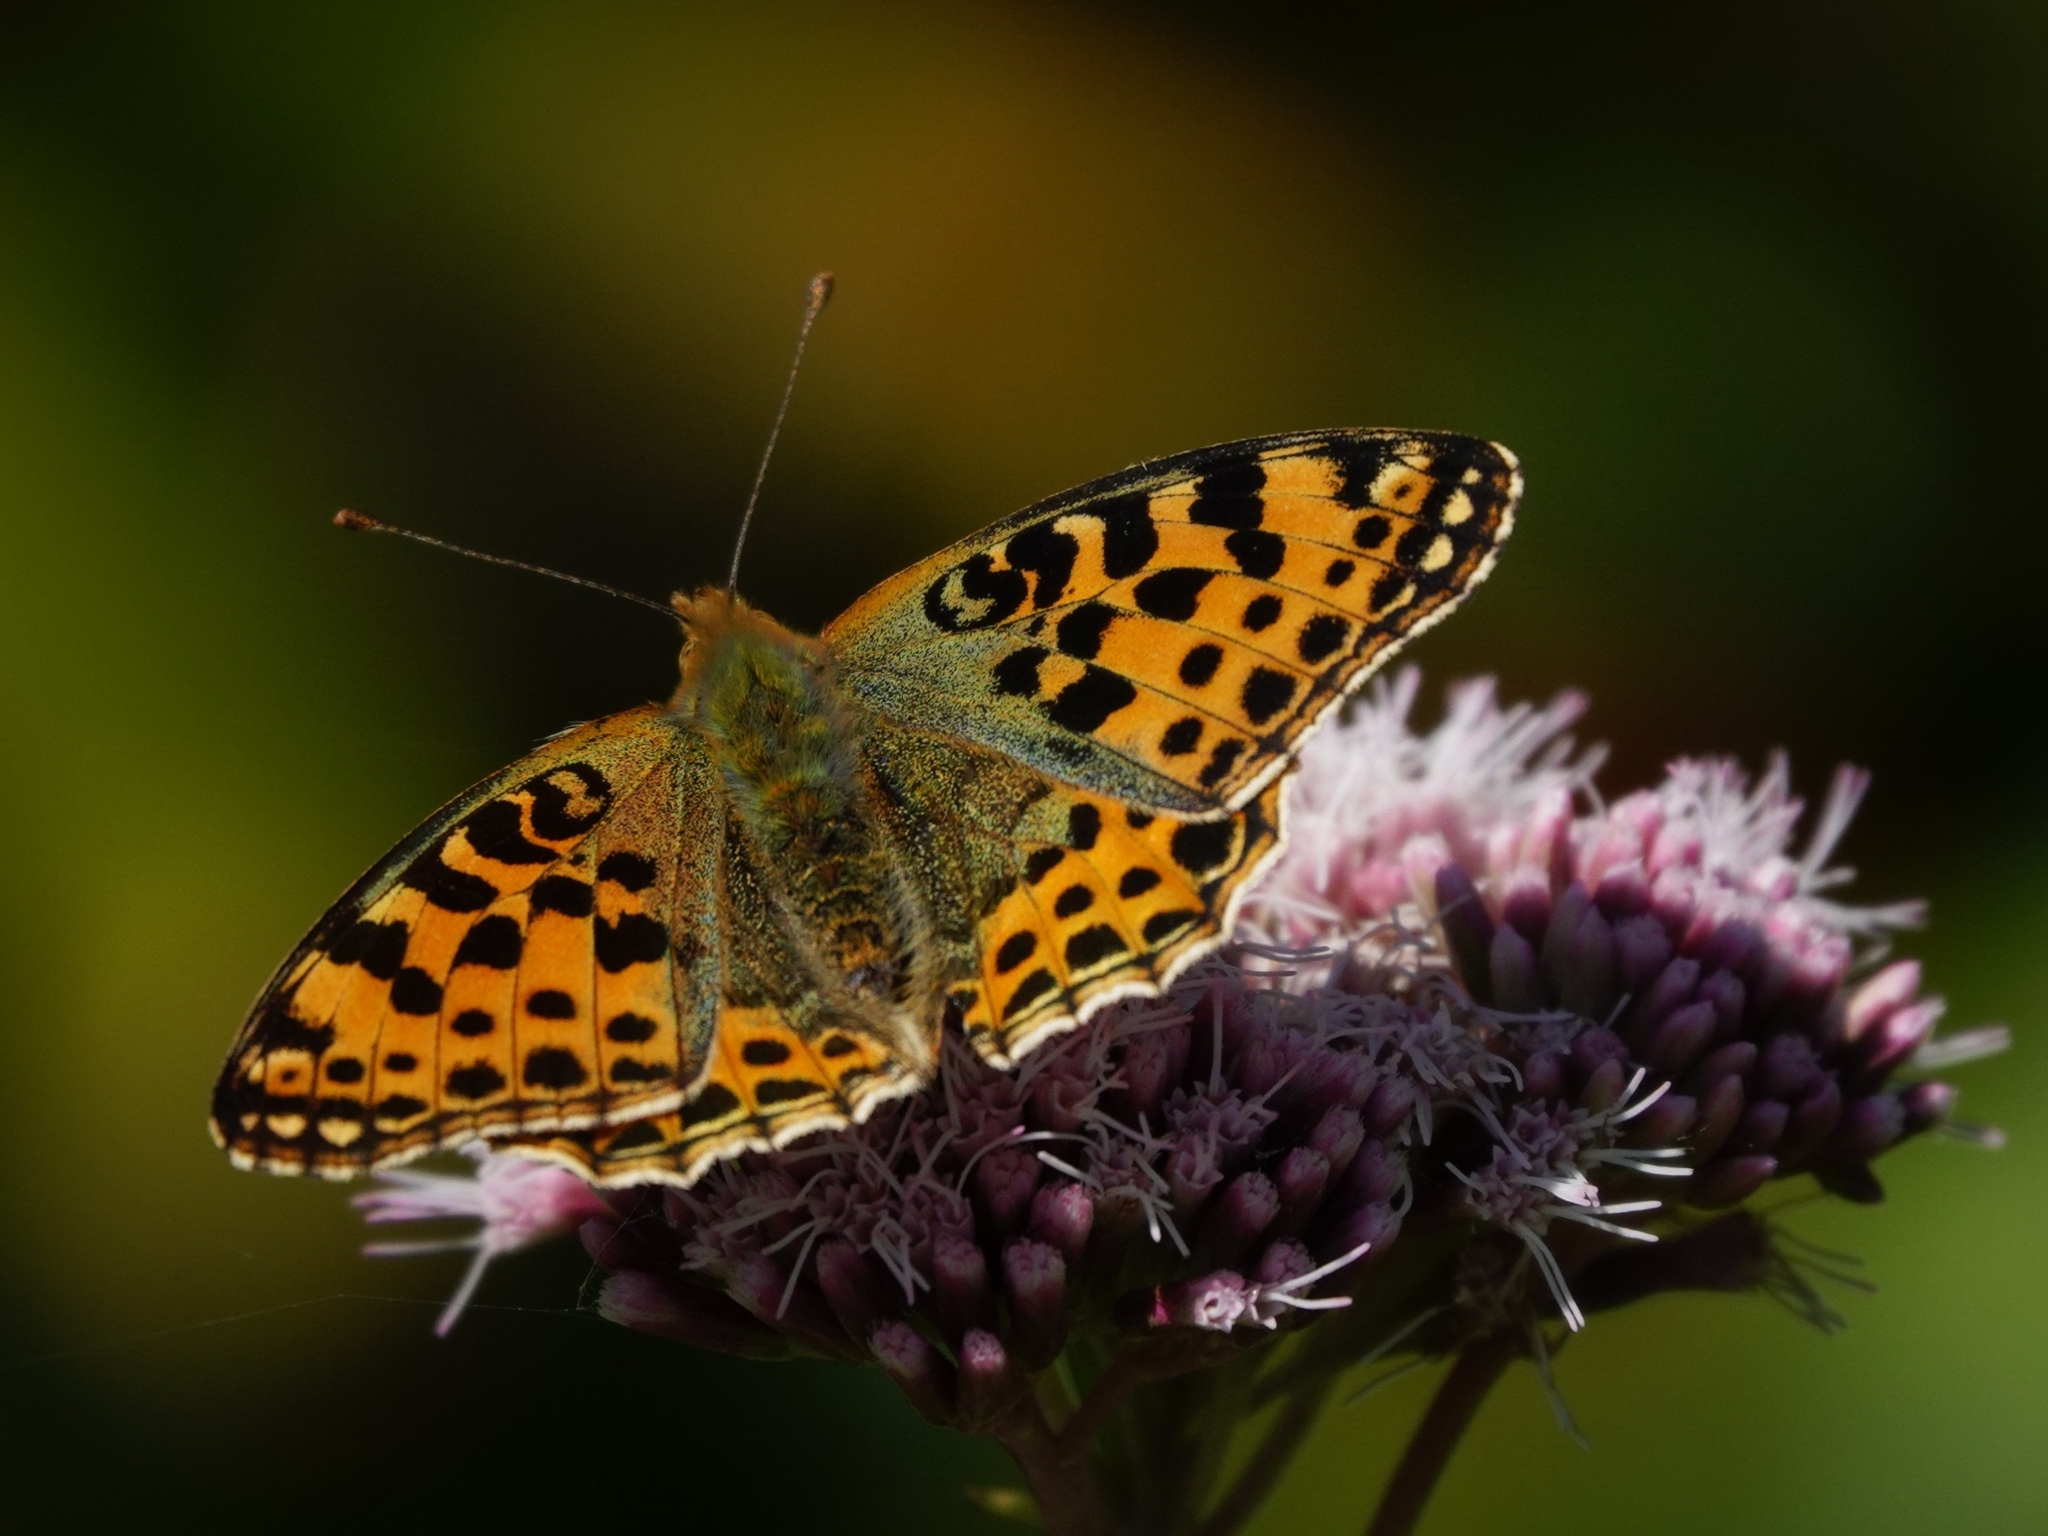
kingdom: Animalia
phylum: Arthropoda
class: Insecta
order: Lepidoptera
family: Nymphalidae
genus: Issoria
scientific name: Issoria lathonia
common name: Queen of spain fritillary
